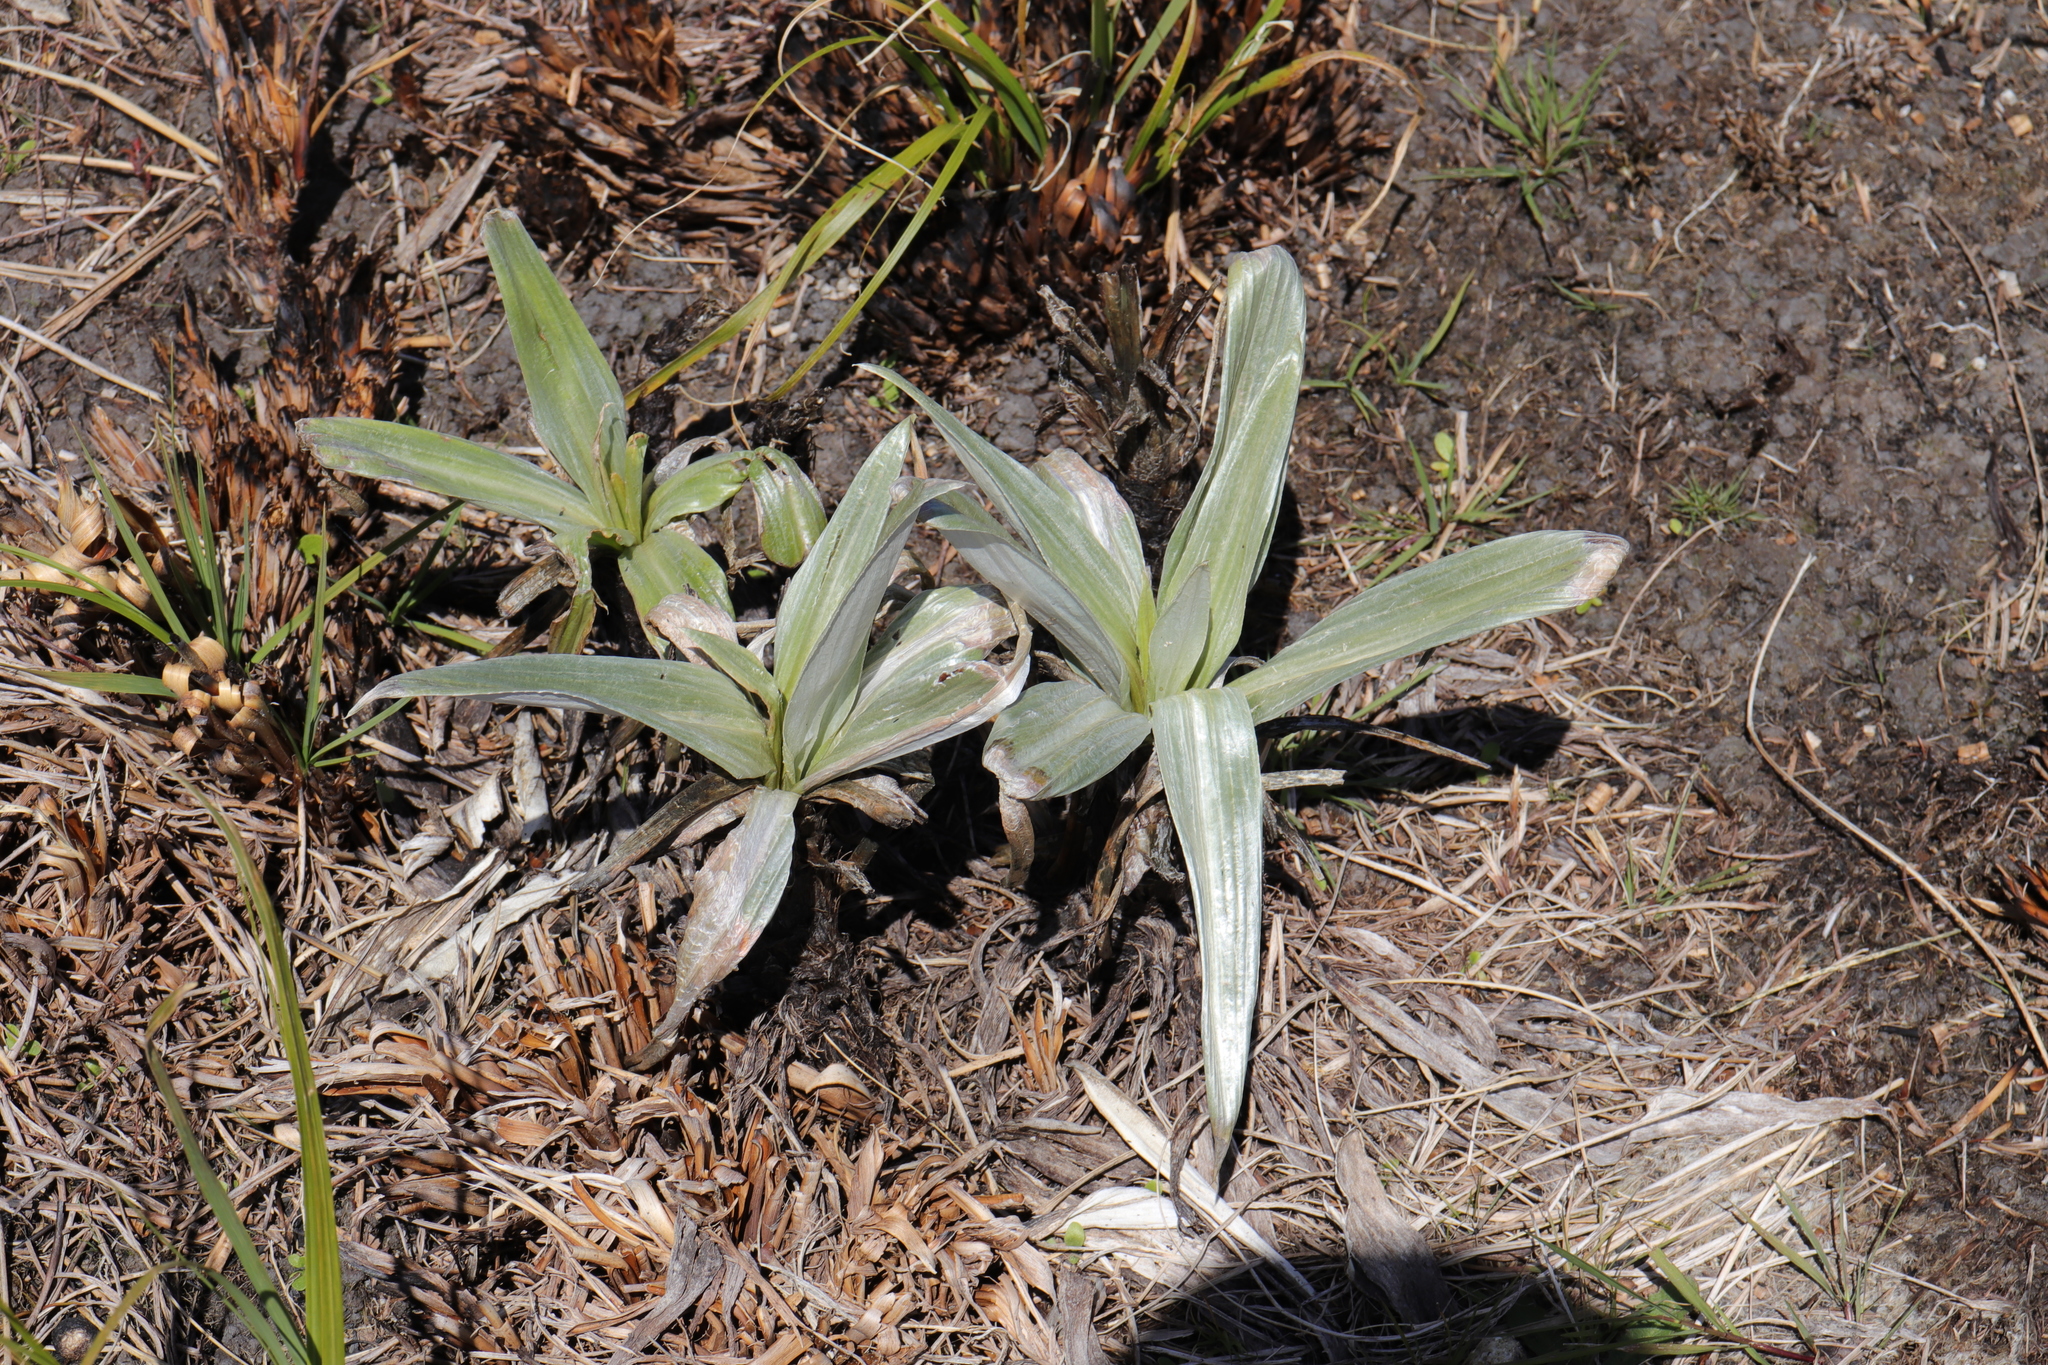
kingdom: Plantae
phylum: Tracheophyta
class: Magnoliopsida
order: Asterales
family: Asteraceae
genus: Celmisia
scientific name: Celmisia semicordata
